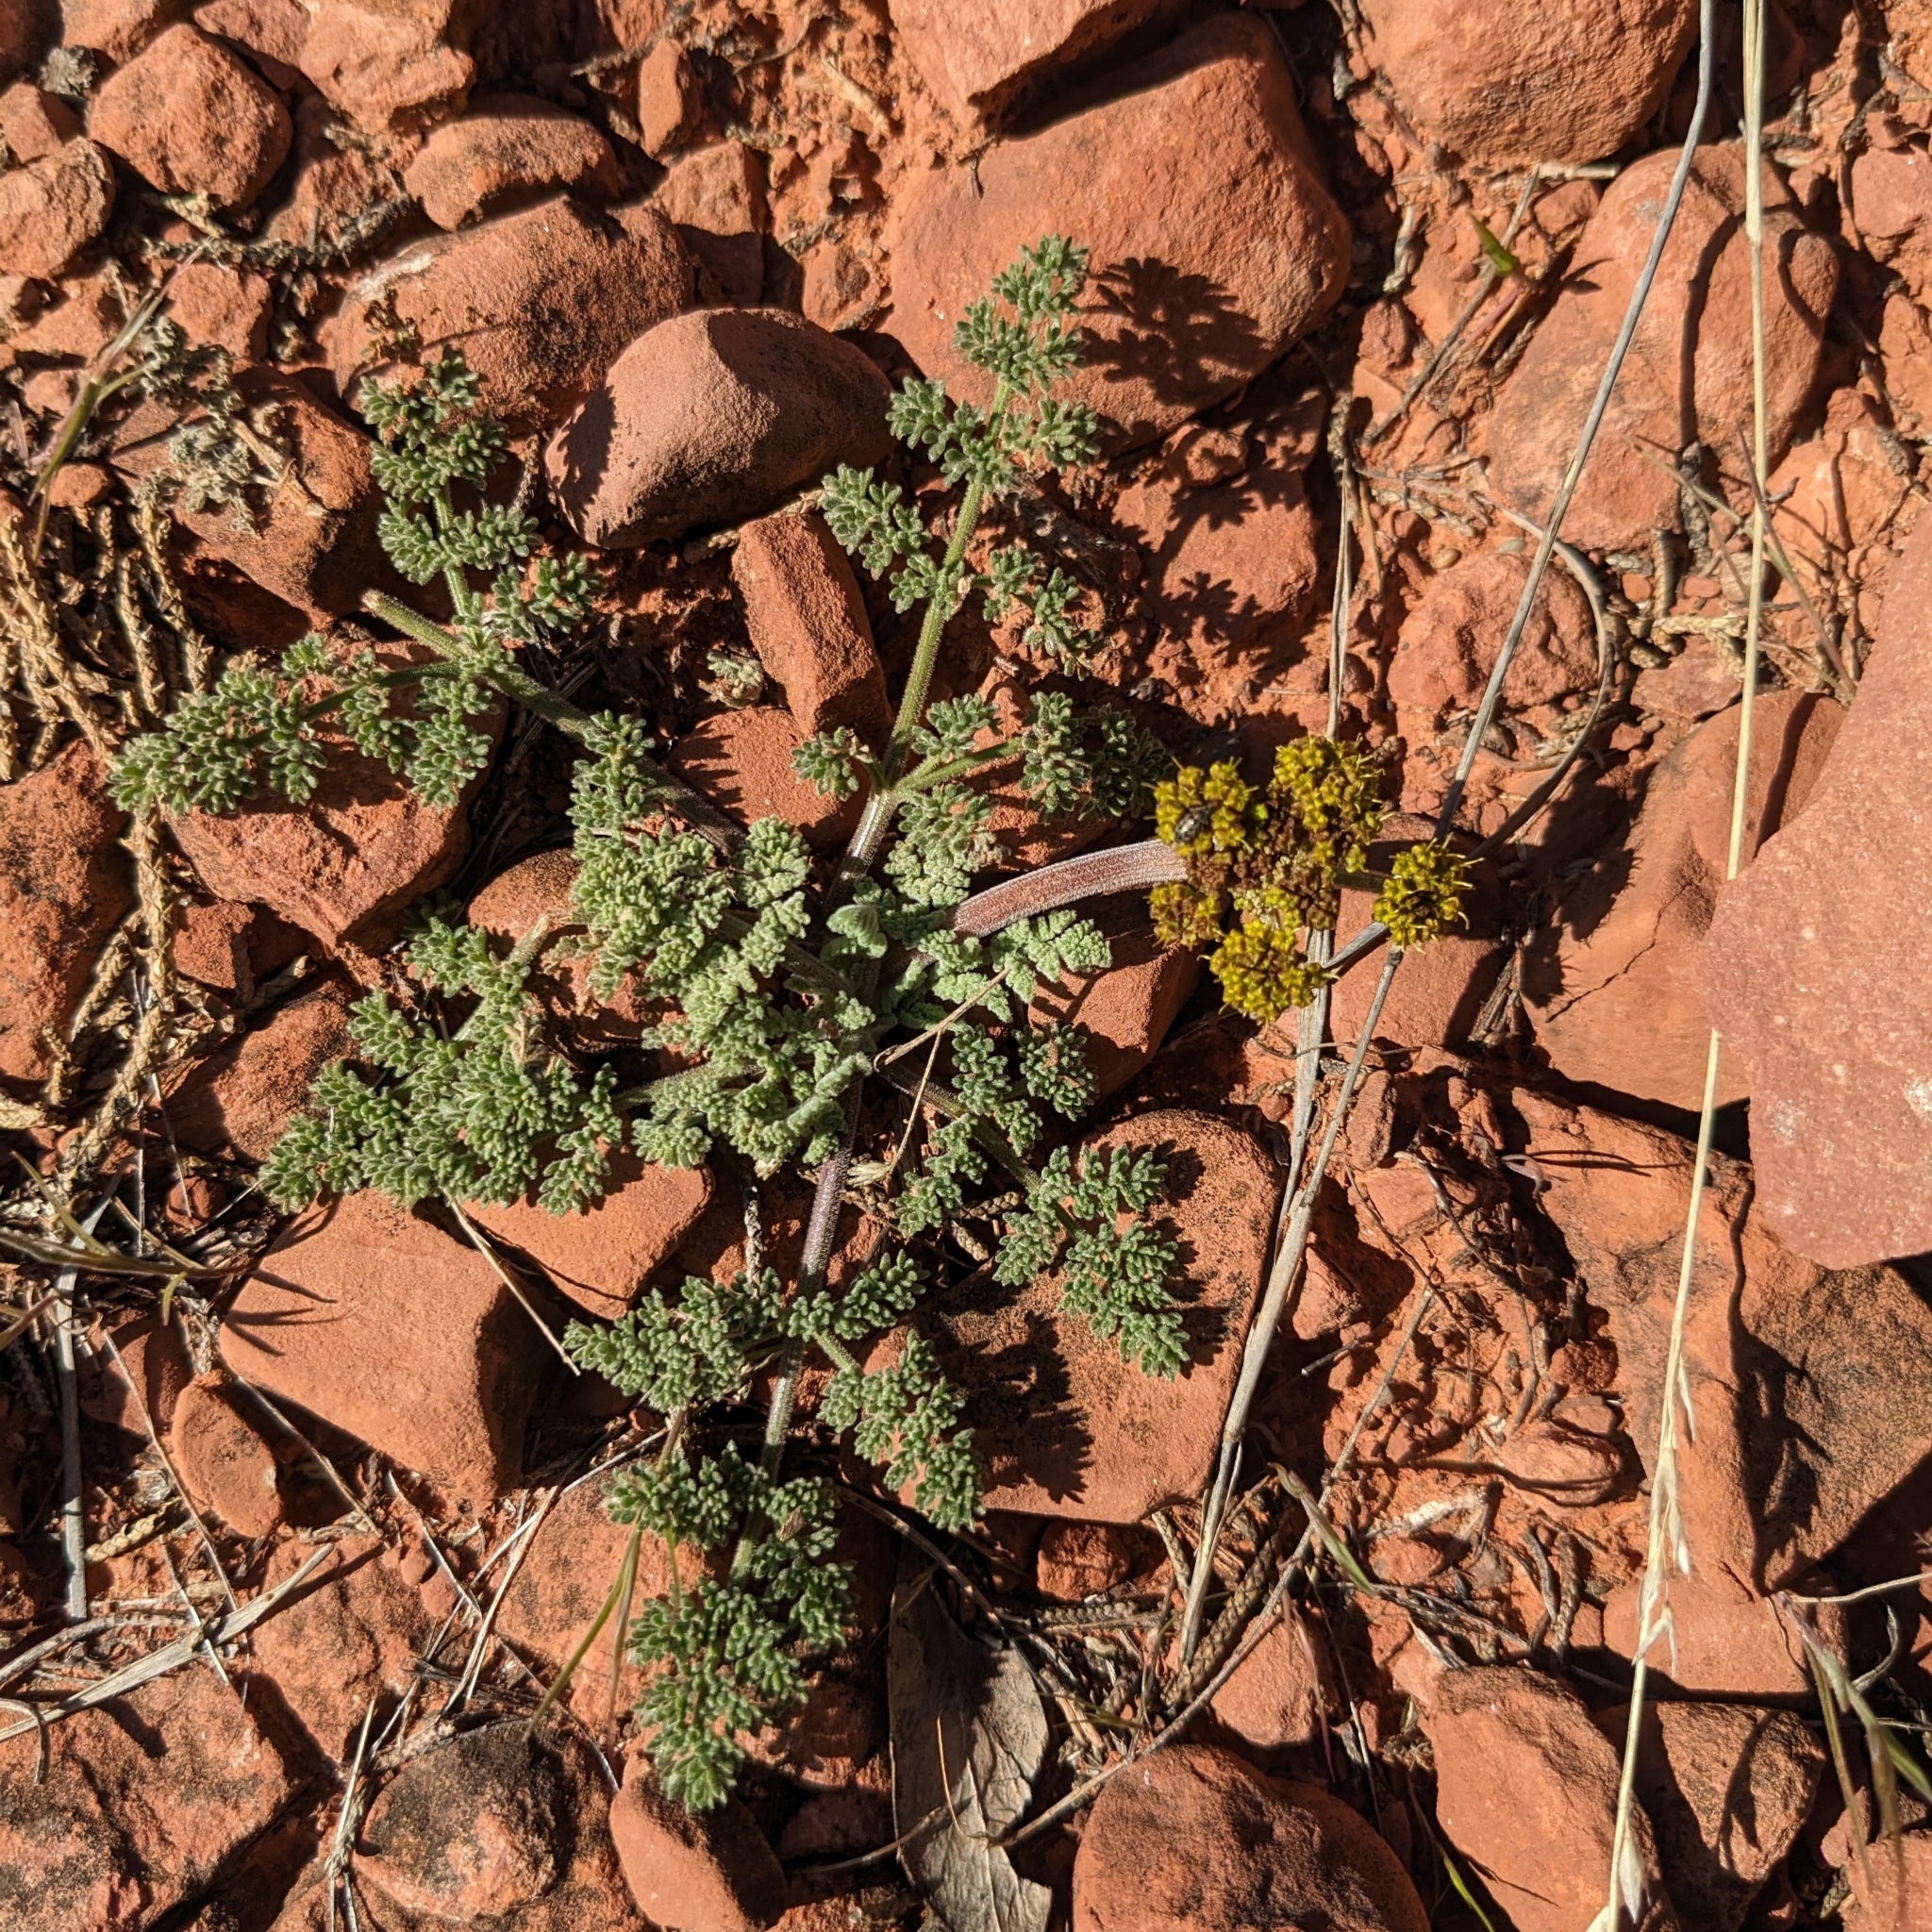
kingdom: Plantae
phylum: Tracheophyta
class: Magnoliopsida
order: Apiales
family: Apiaceae
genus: Lomatium
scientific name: Lomatium foeniculaceum
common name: Desert-parsley
